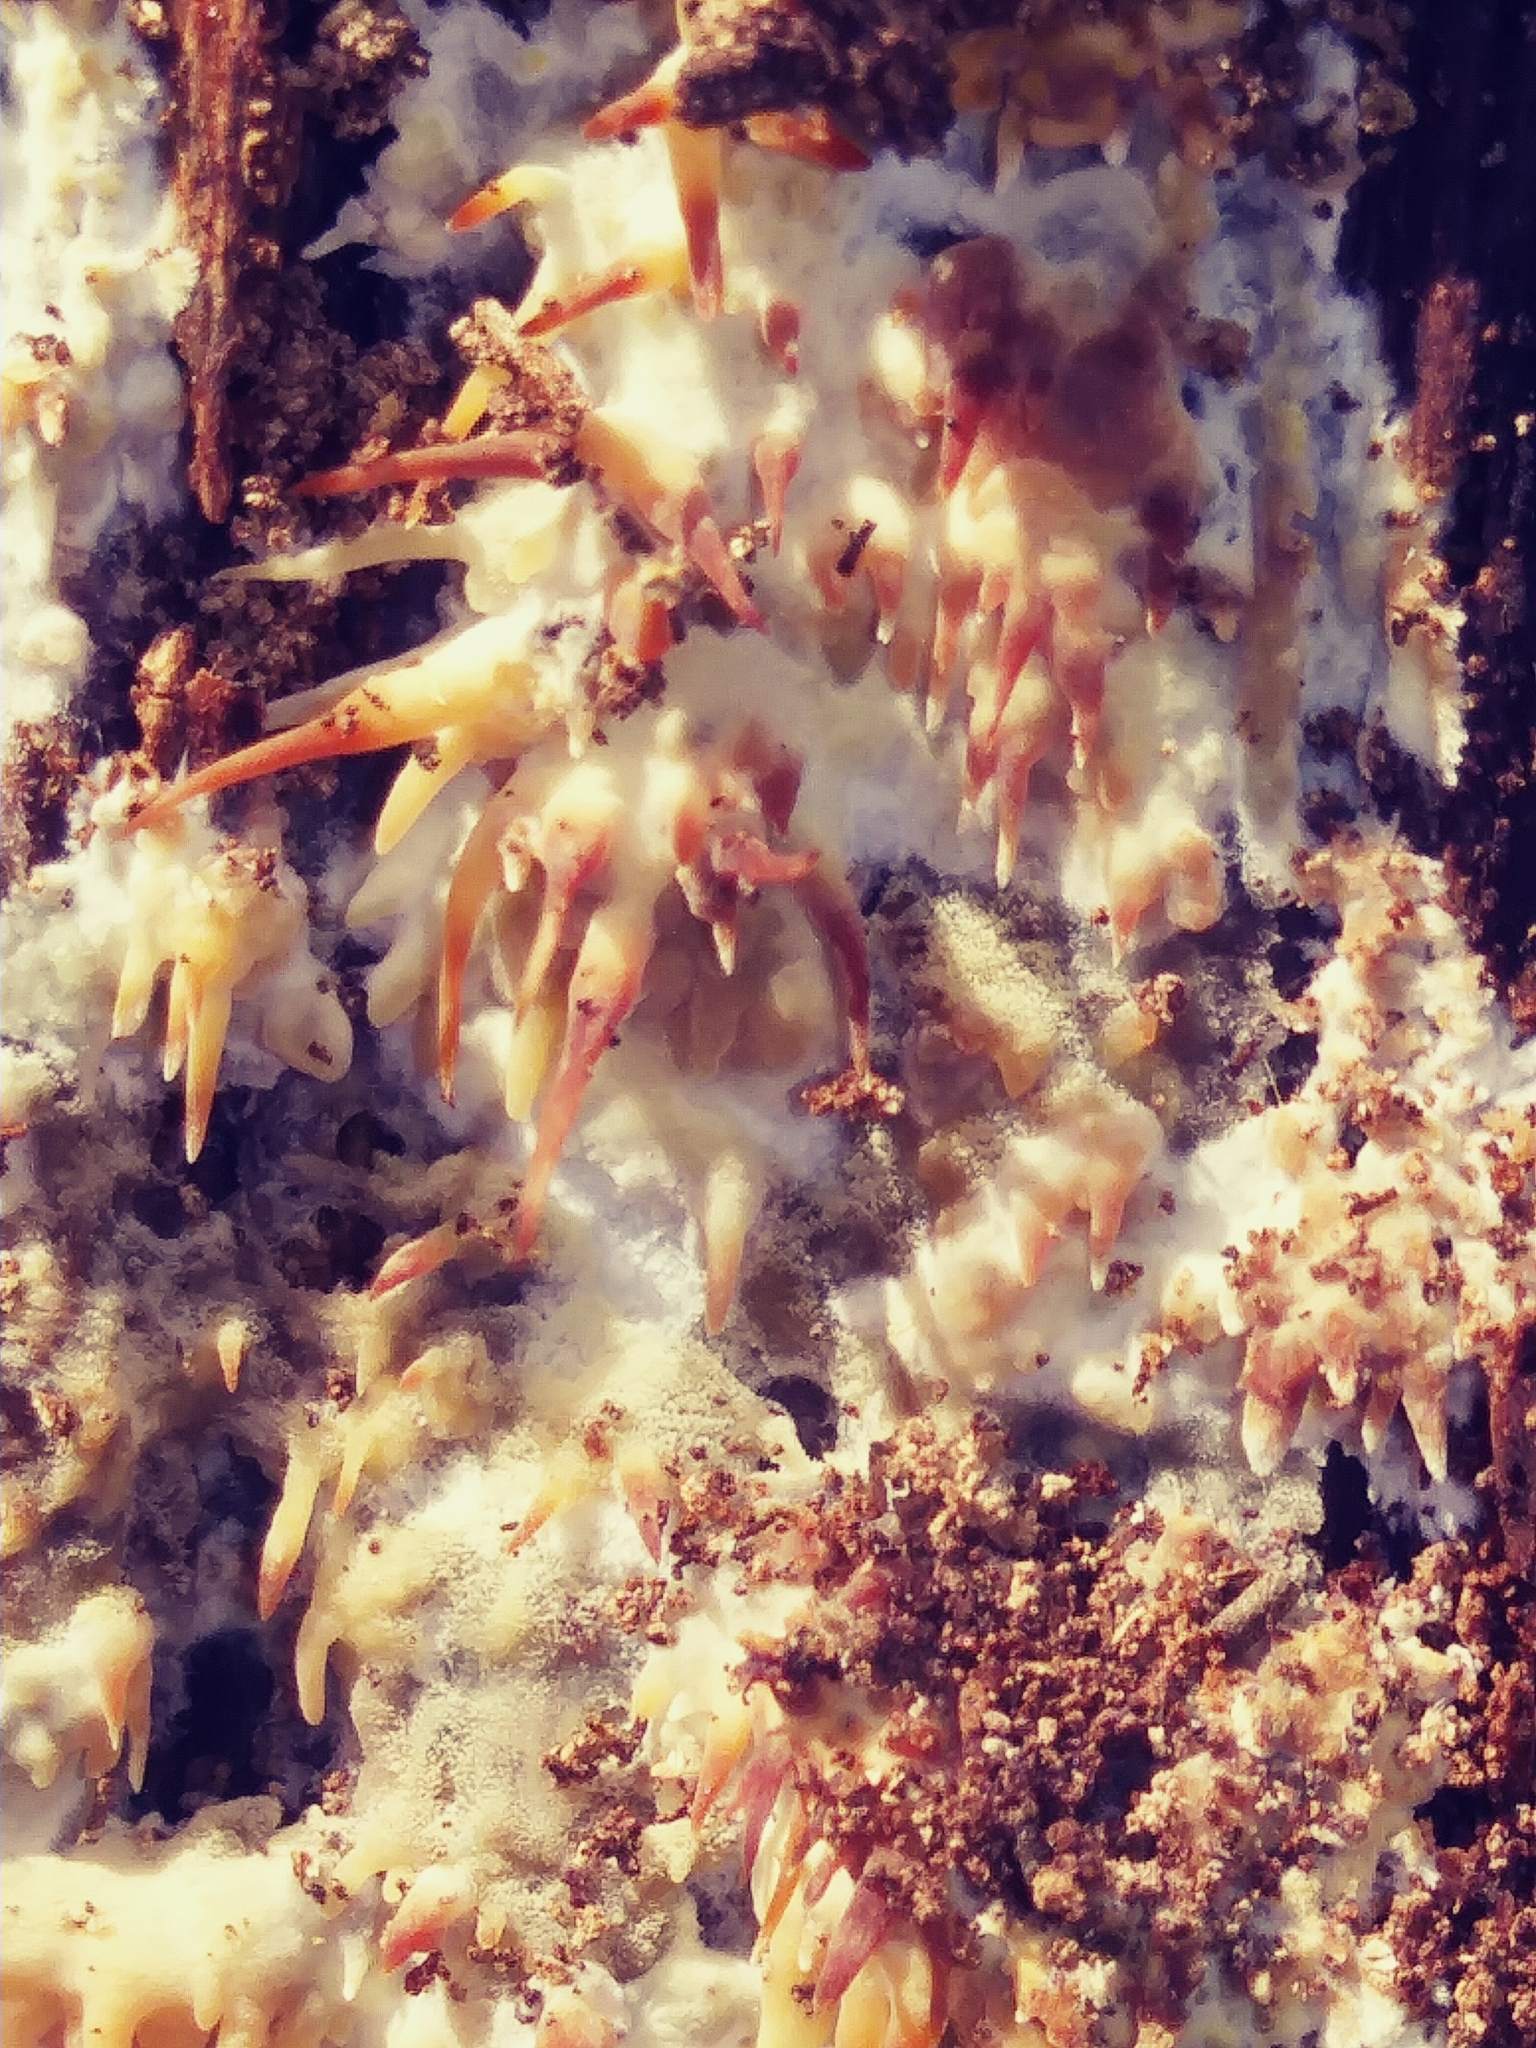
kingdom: Fungi
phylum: Basidiomycota
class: Agaricomycetes
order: Agaricales
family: Radulomycetaceae
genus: Radulomyces
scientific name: Radulomyces copelandii
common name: Asian beauty
